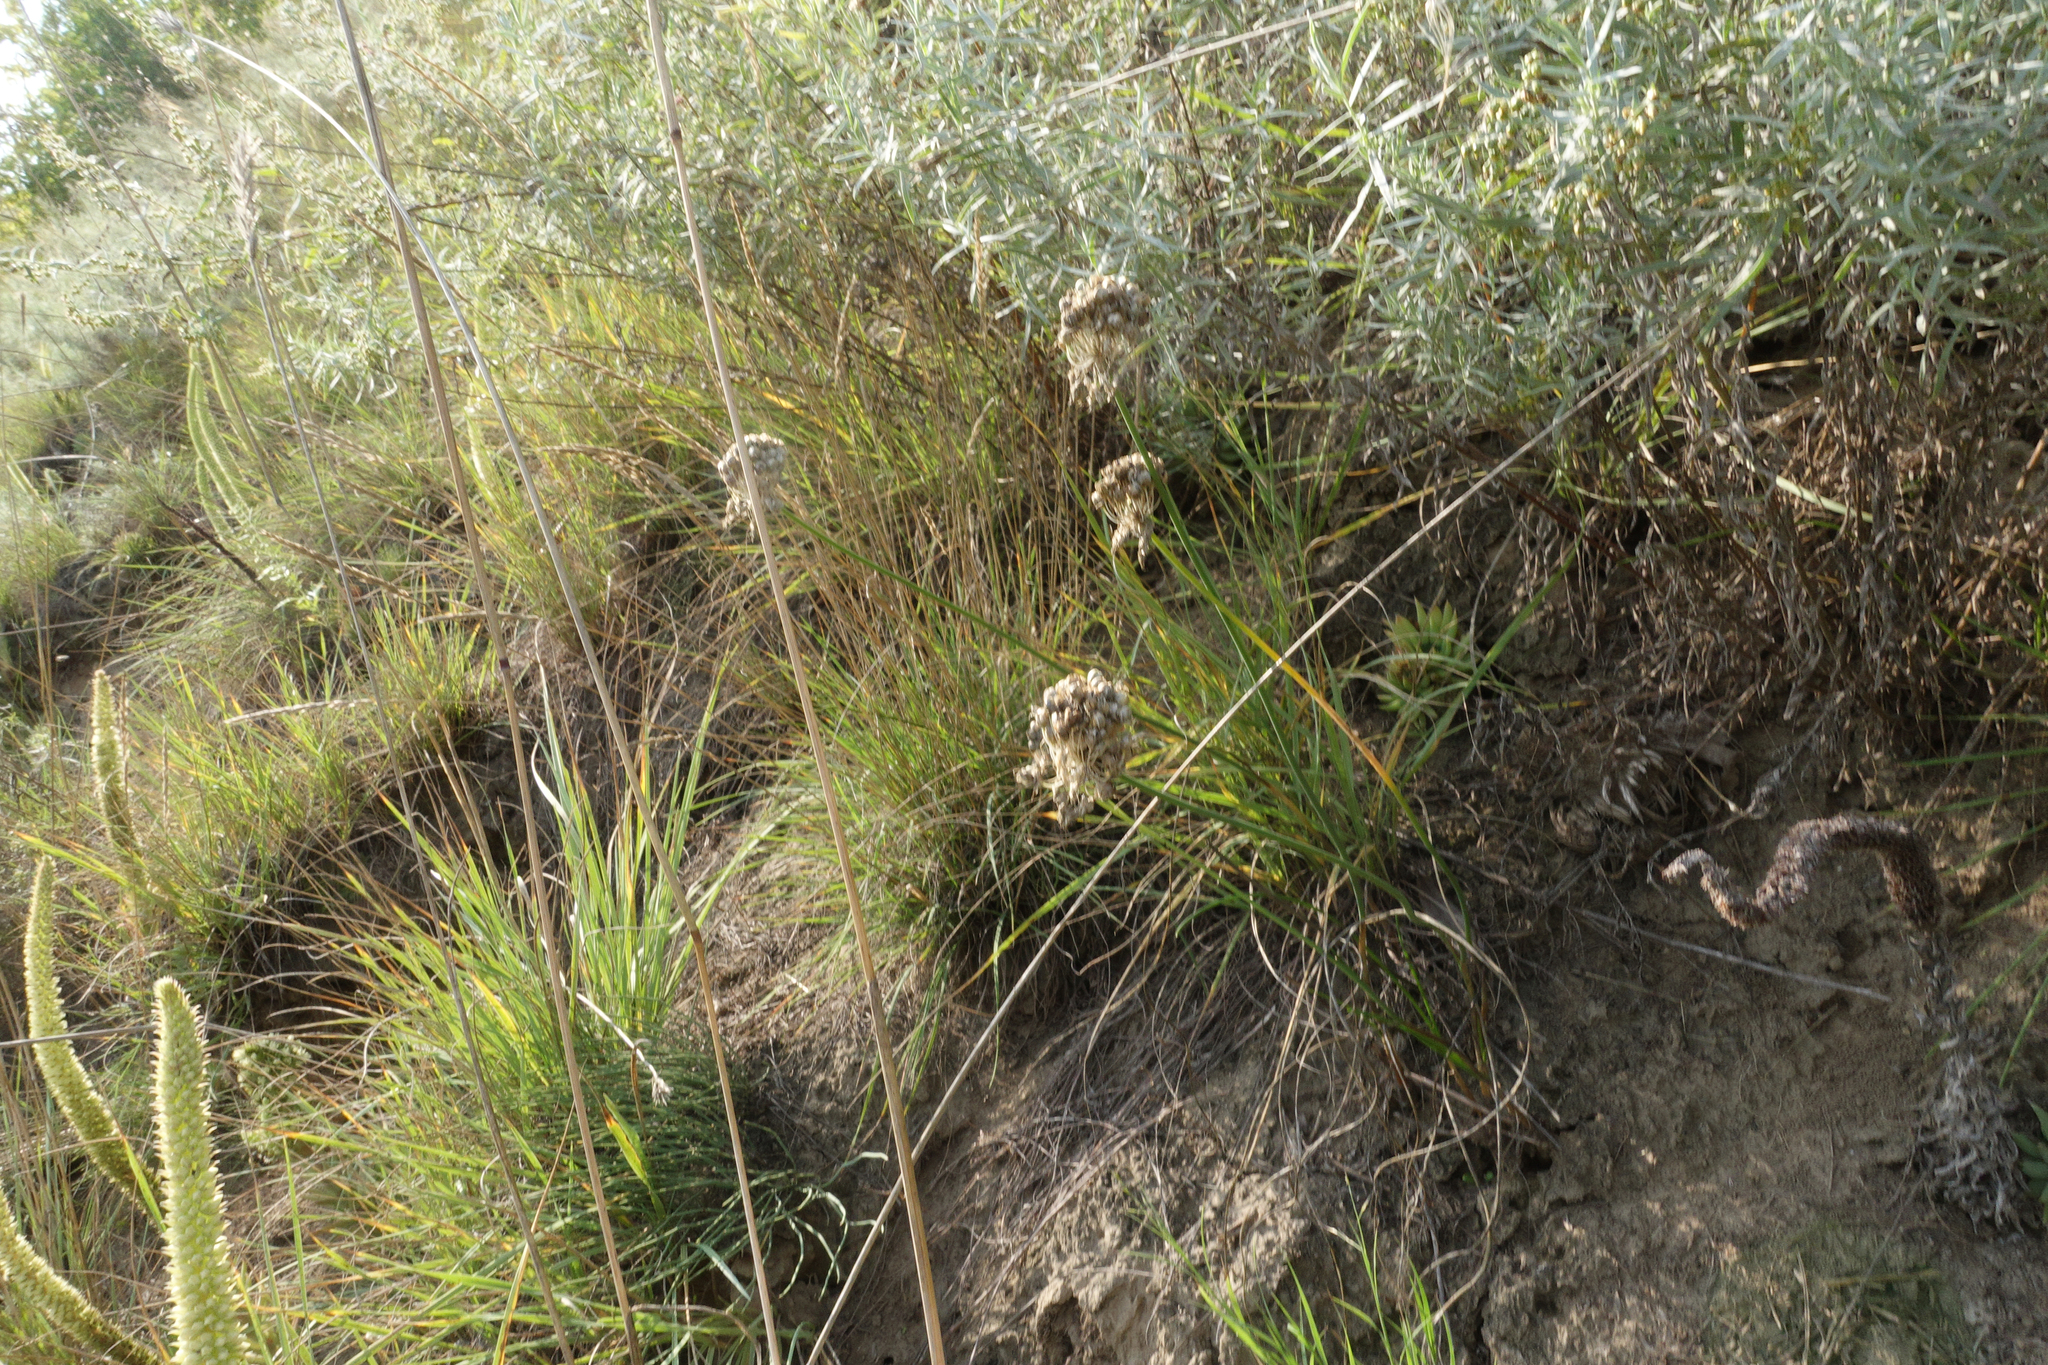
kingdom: Plantae
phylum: Tracheophyta
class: Liliopsida
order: Asparagales
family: Amaryllidaceae
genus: Allium
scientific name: Allium clathratum
